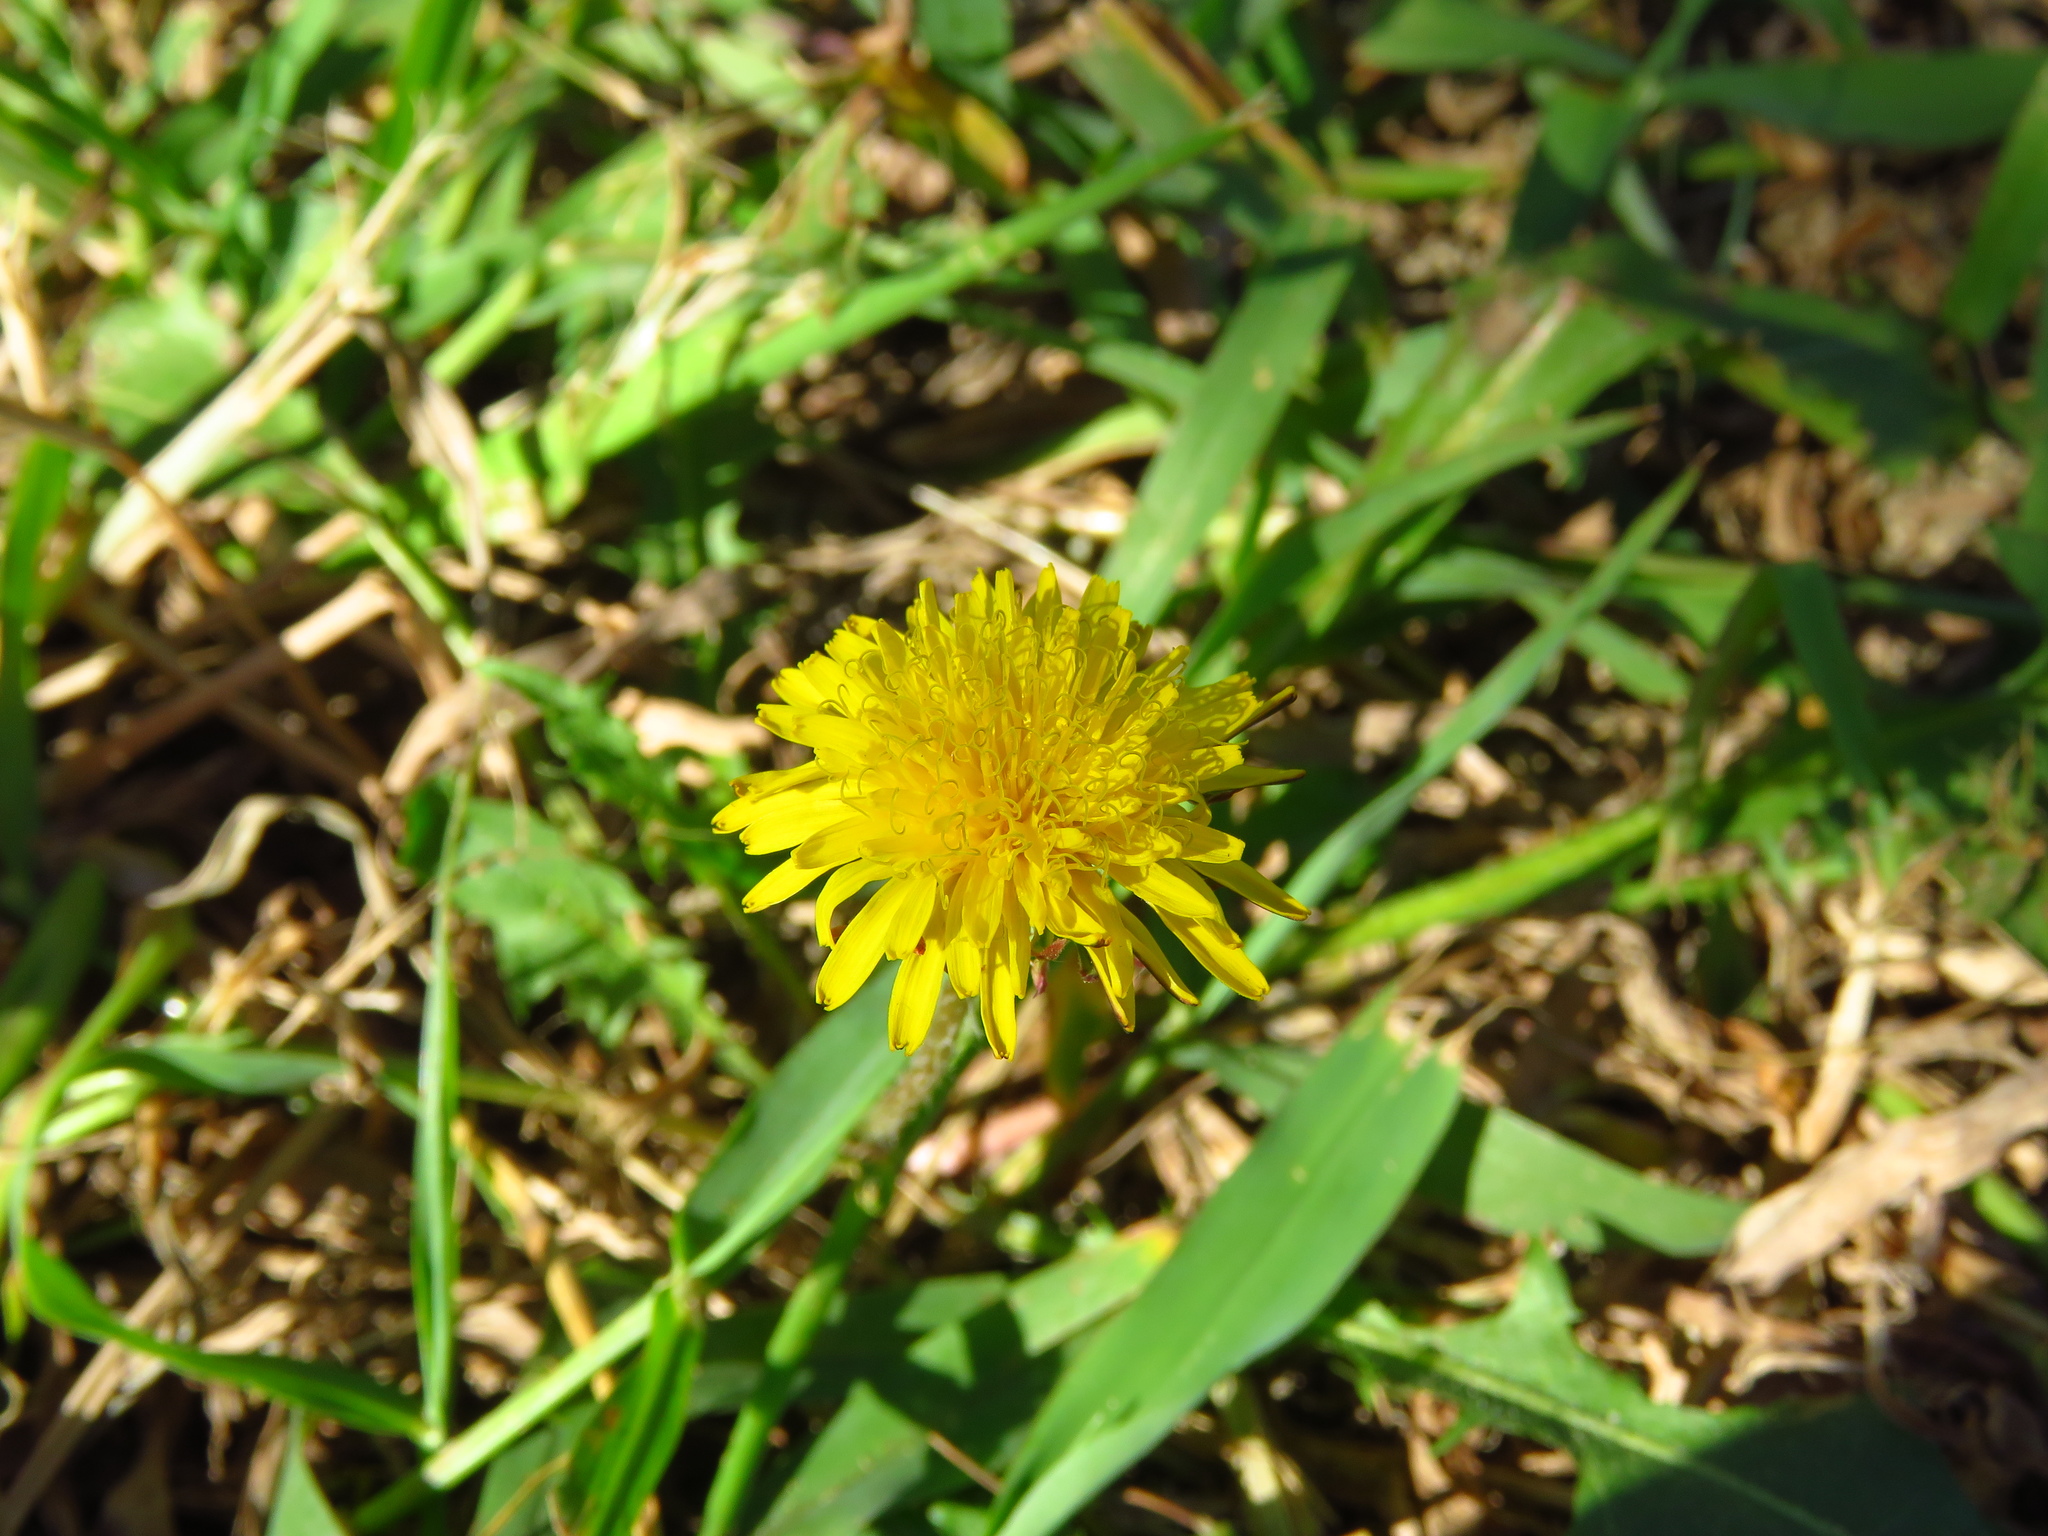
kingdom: Plantae
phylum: Tracheophyta
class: Magnoliopsida
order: Asterales
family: Asteraceae
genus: Taraxacum
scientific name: Taraxacum officinale
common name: Common dandelion
